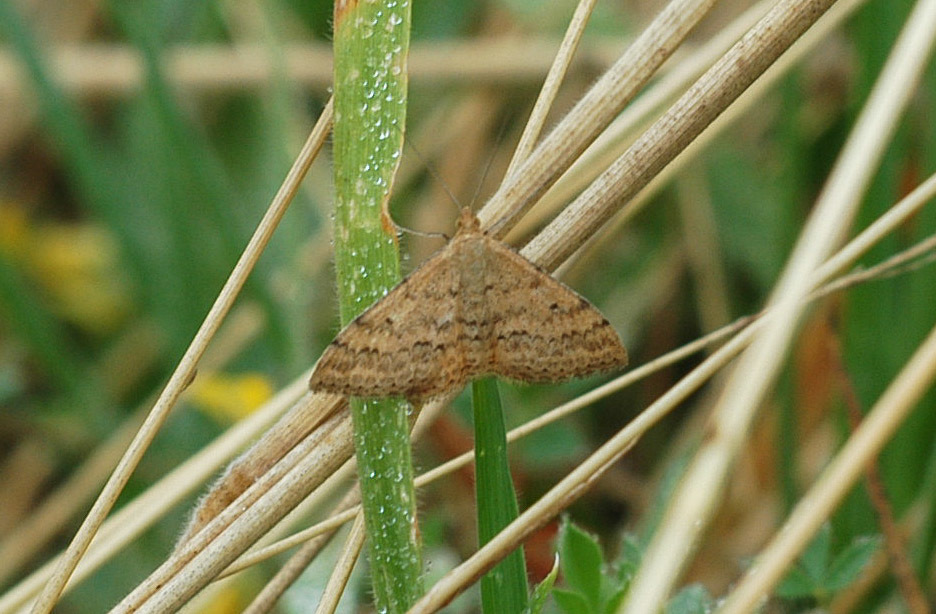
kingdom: Animalia
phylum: Arthropoda
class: Insecta
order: Lepidoptera
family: Geometridae
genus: Scopula
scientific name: Scopula rubraria
